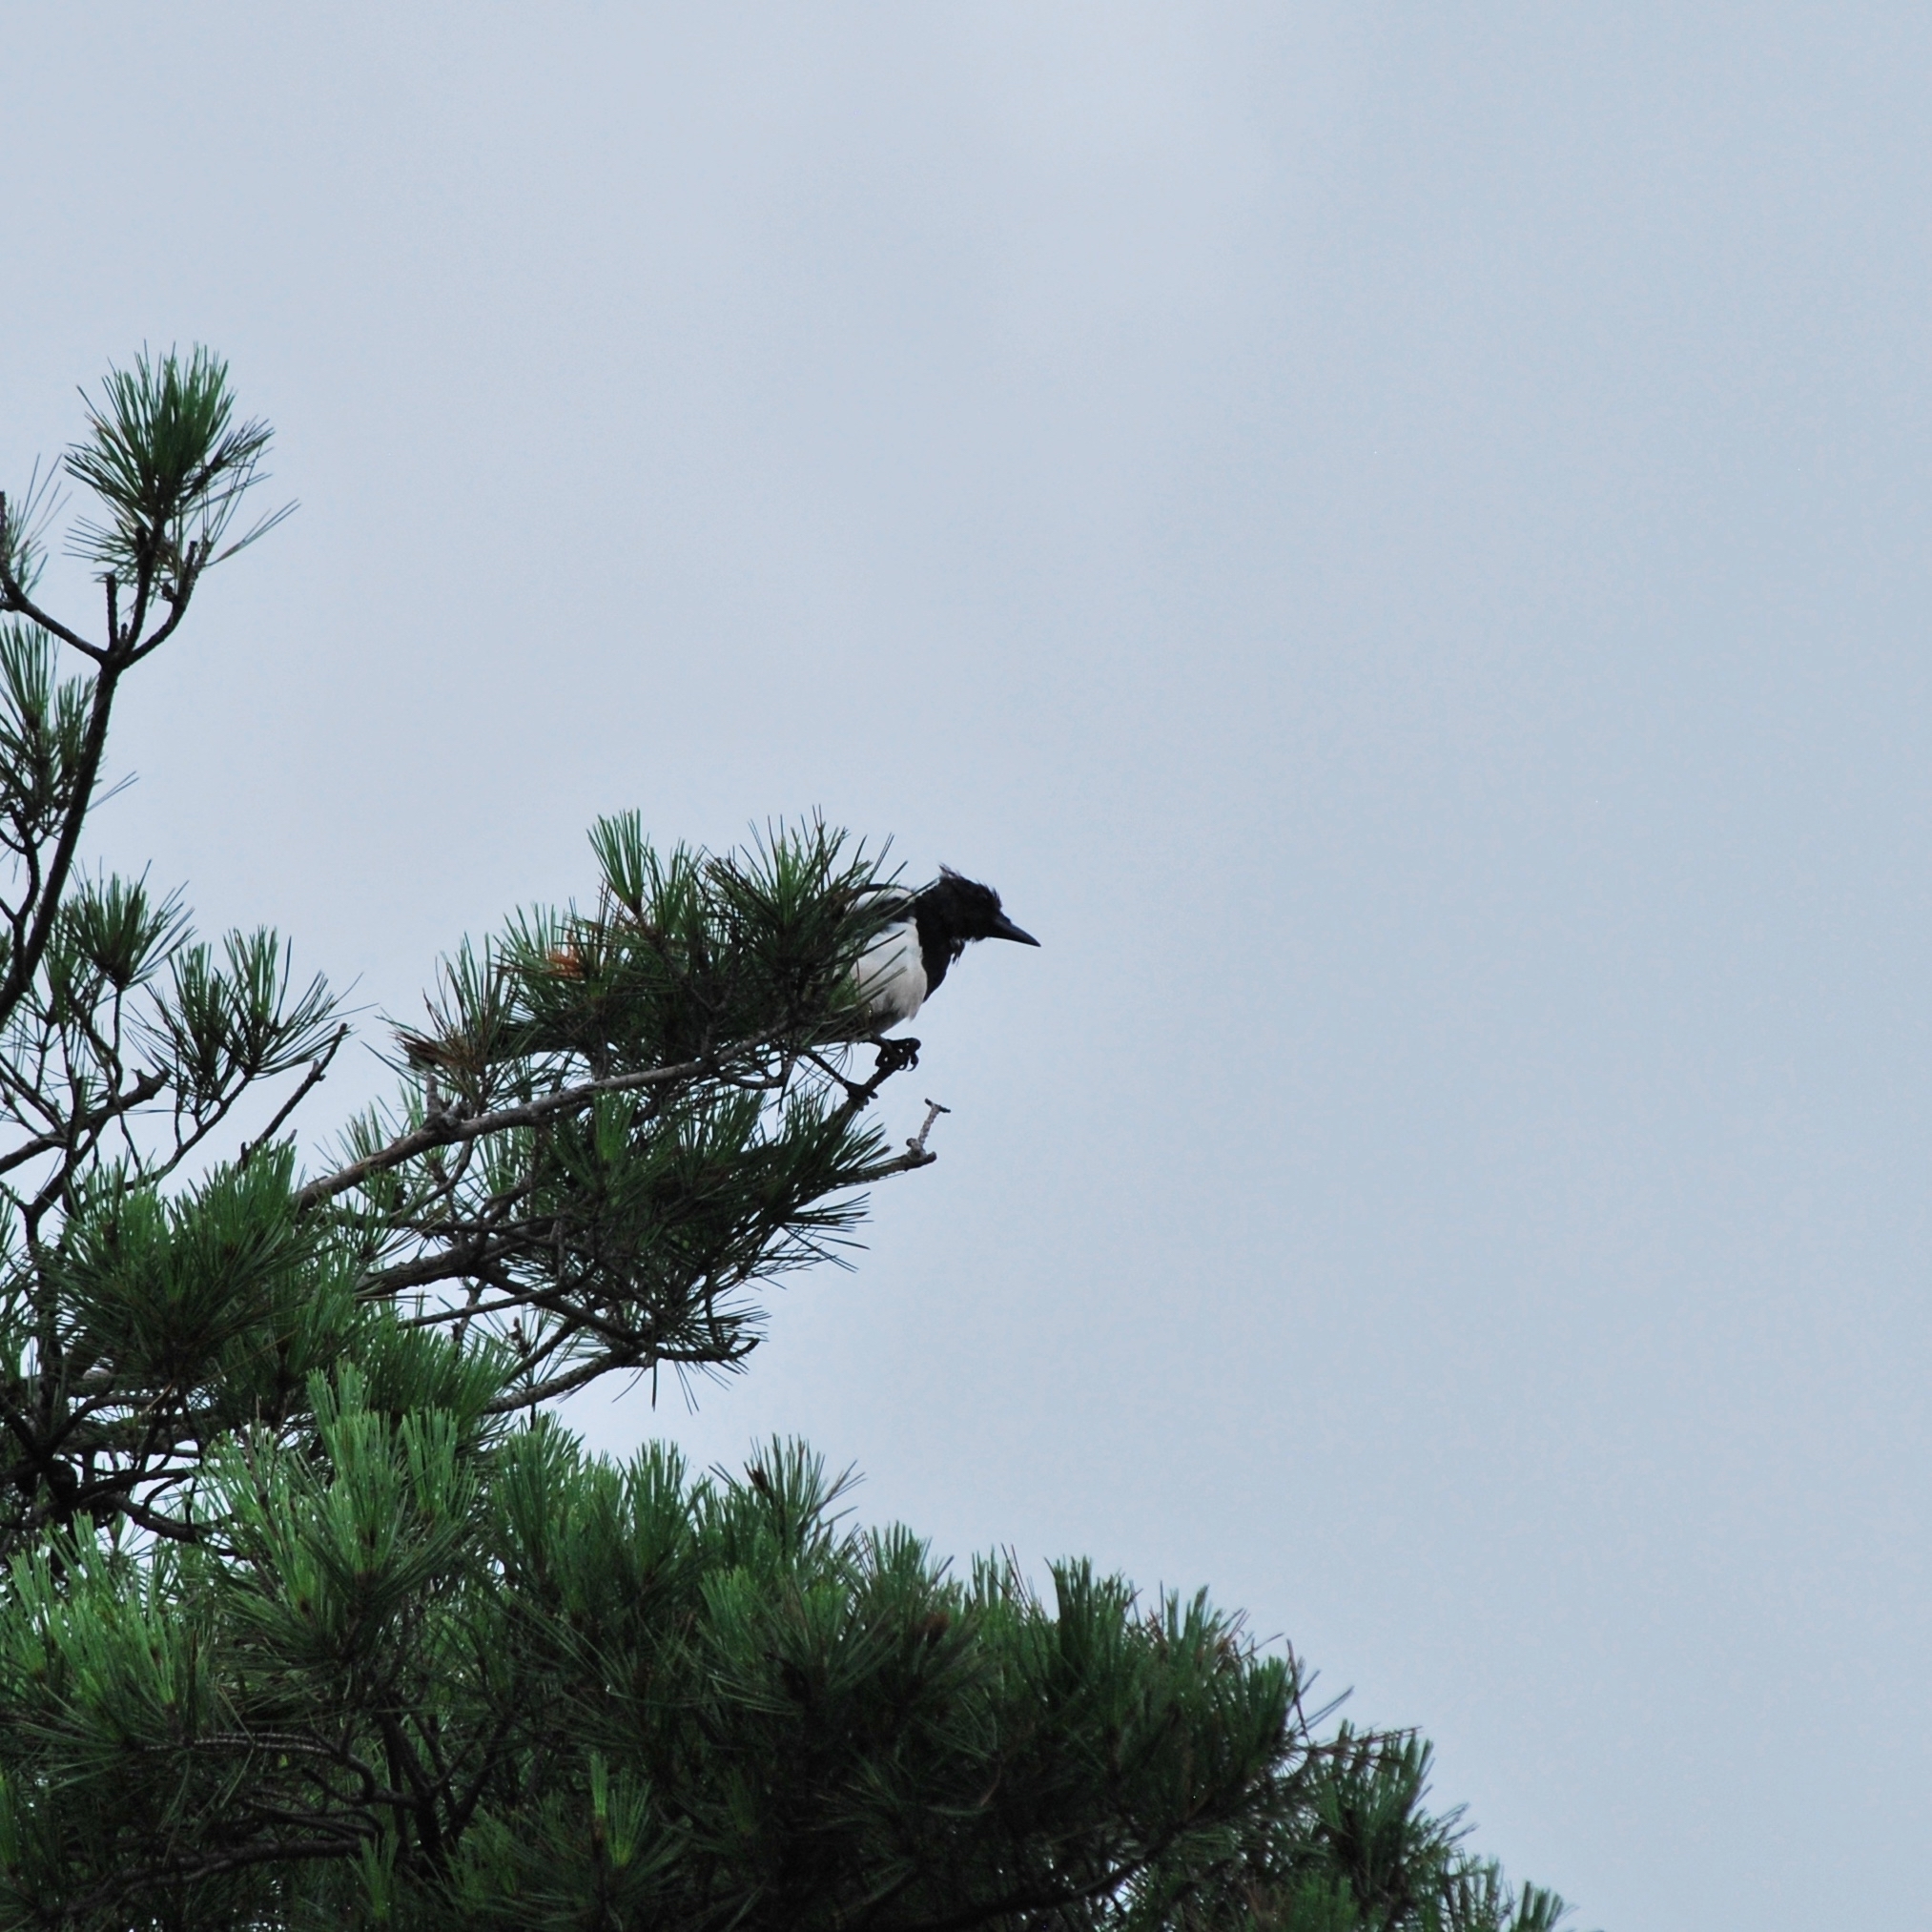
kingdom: Animalia
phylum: Chordata
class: Aves
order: Passeriformes
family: Corvidae
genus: Pica
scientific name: Pica serica
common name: Oriental magpie
